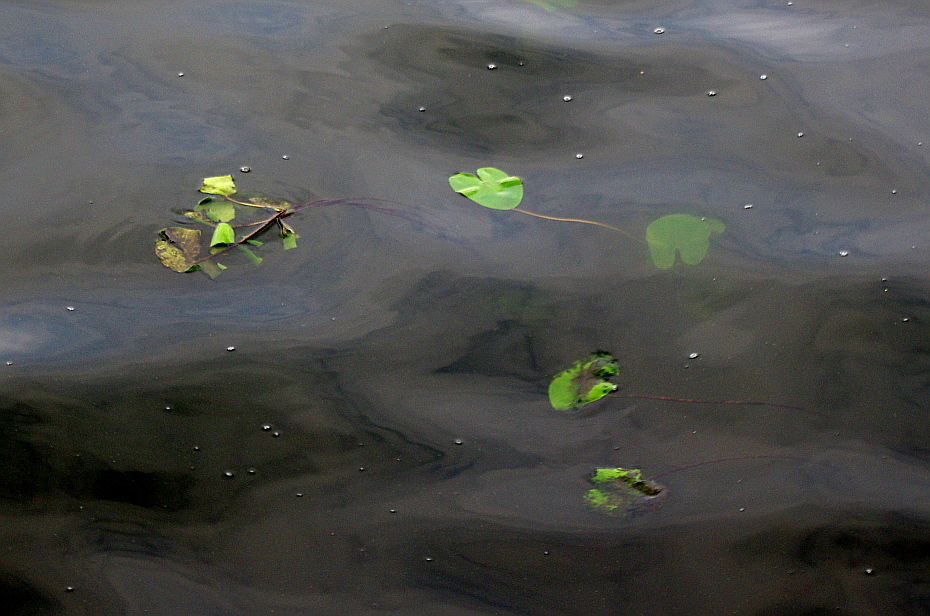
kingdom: Plantae
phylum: Tracheophyta
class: Magnoliopsida
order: Nymphaeales
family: Nymphaeaceae
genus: Nuphar
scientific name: Nuphar lutea
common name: Yellow water-lily
